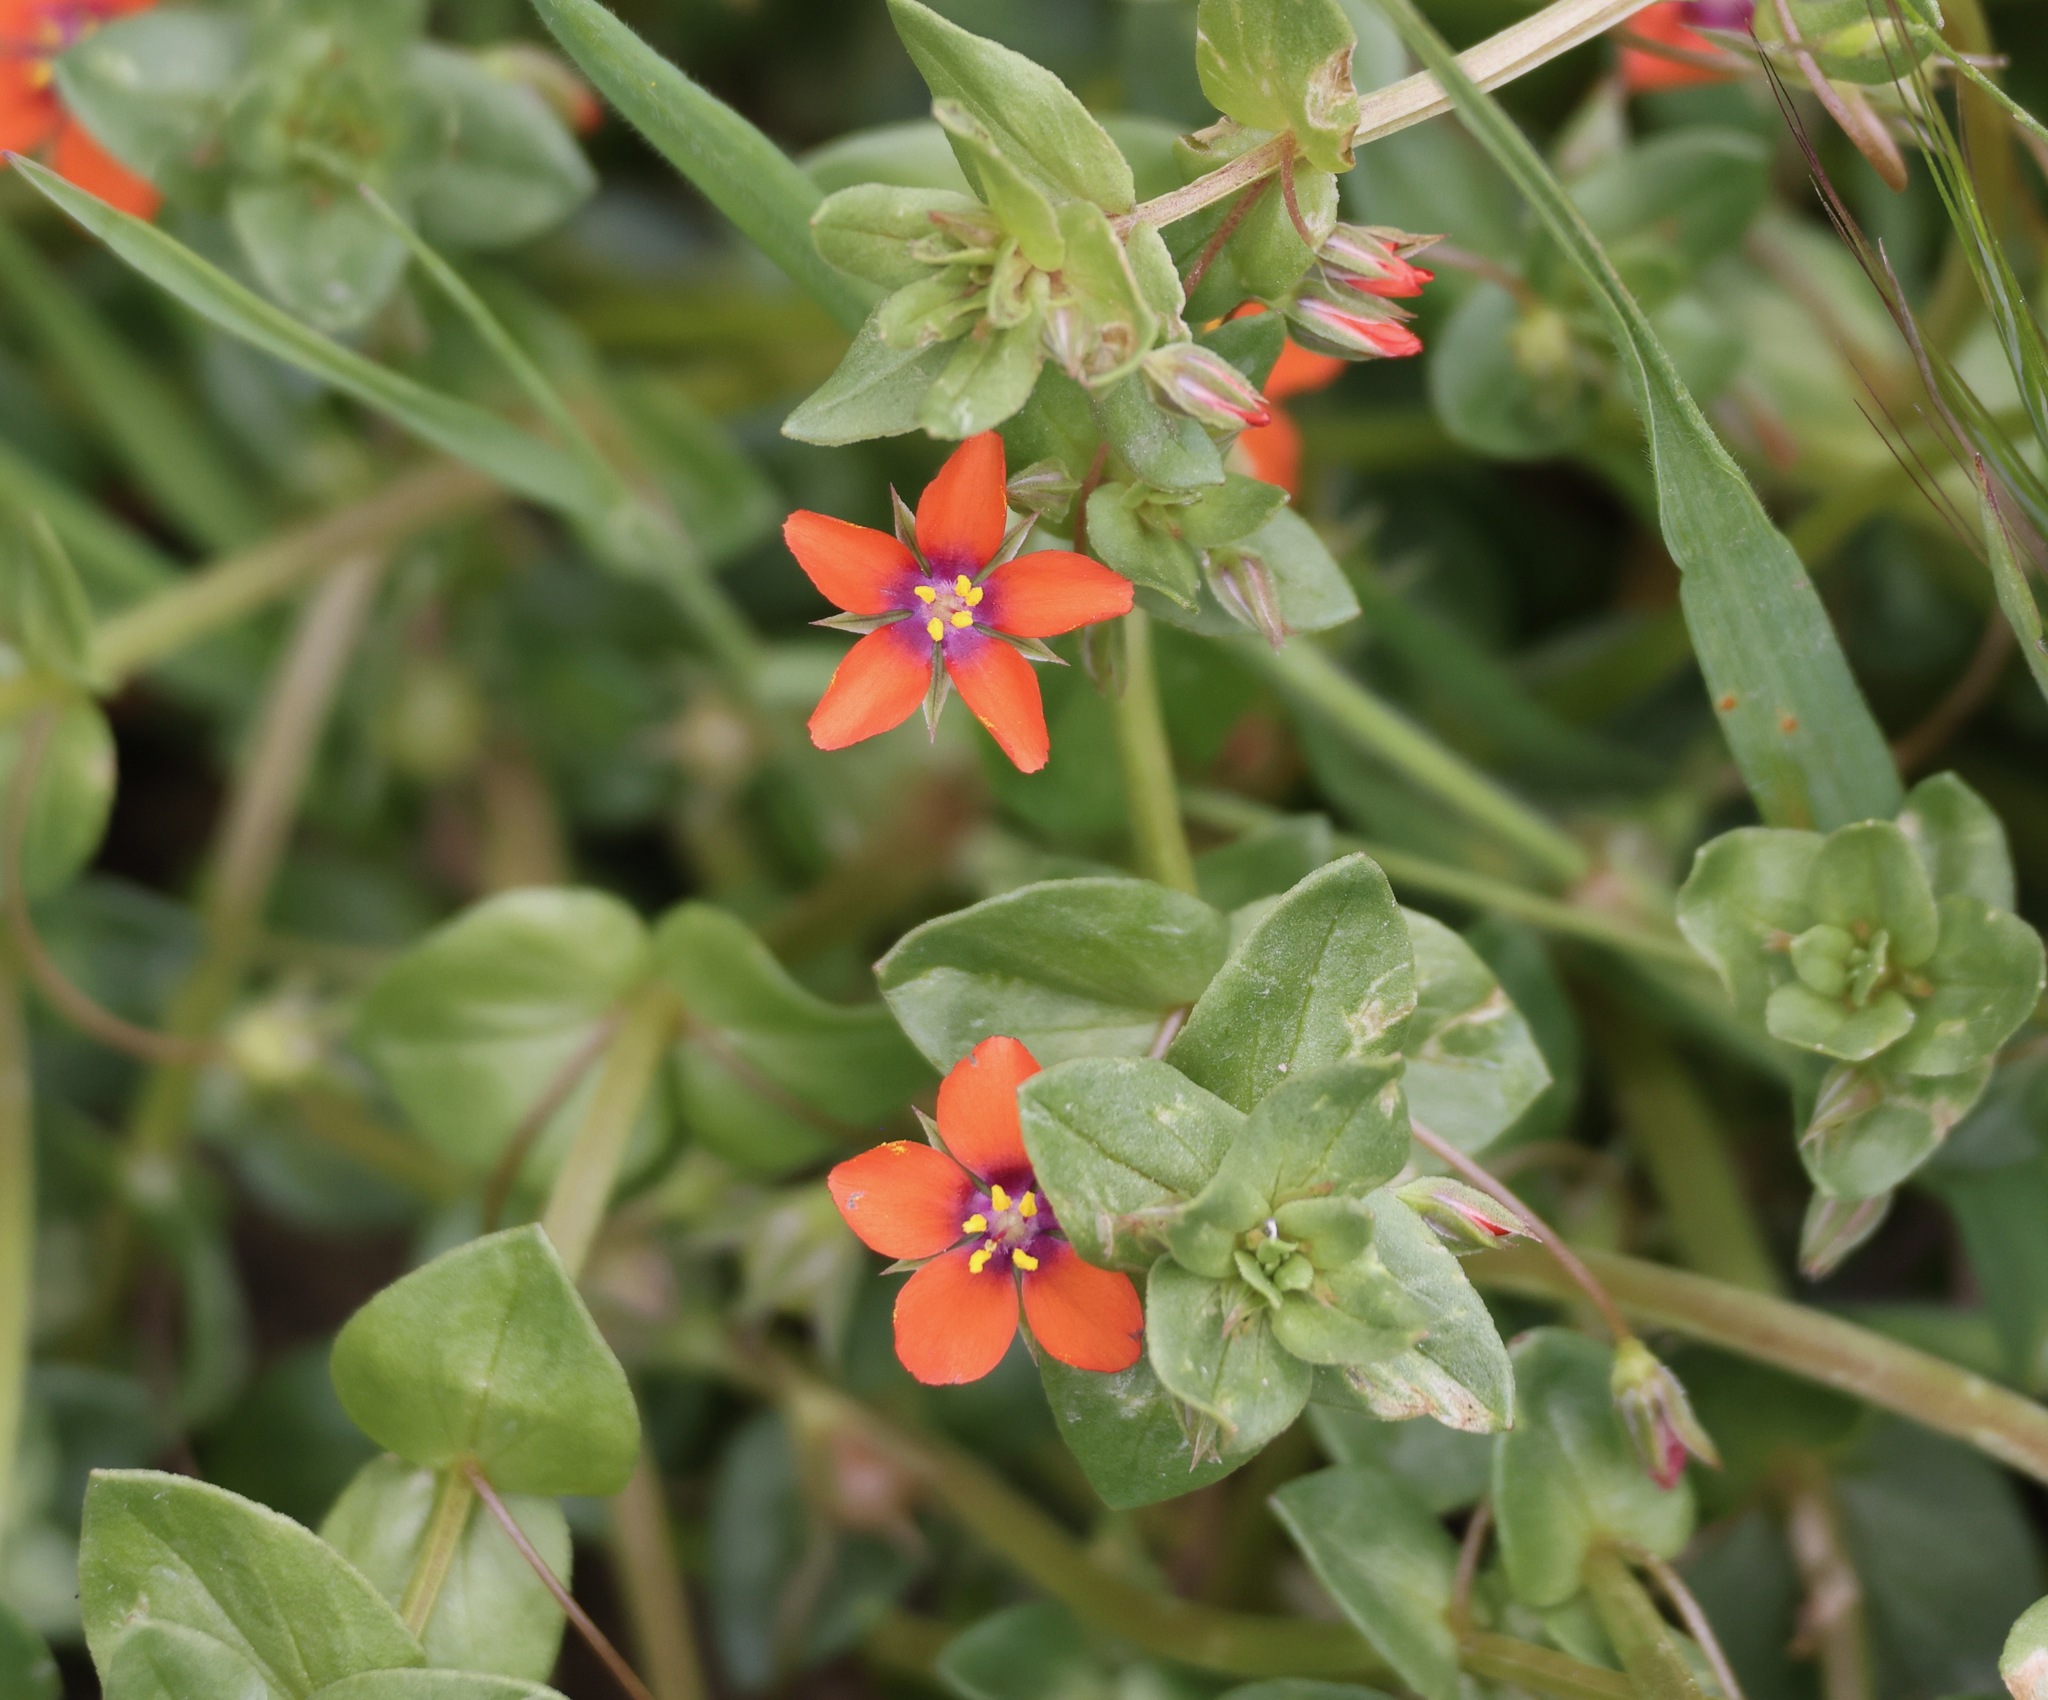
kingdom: Plantae
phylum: Tracheophyta
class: Magnoliopsida
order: Ericales
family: Primulaceae
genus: Lysimachia
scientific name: Lysimachia arvensis
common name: Scarlet pimpernel
